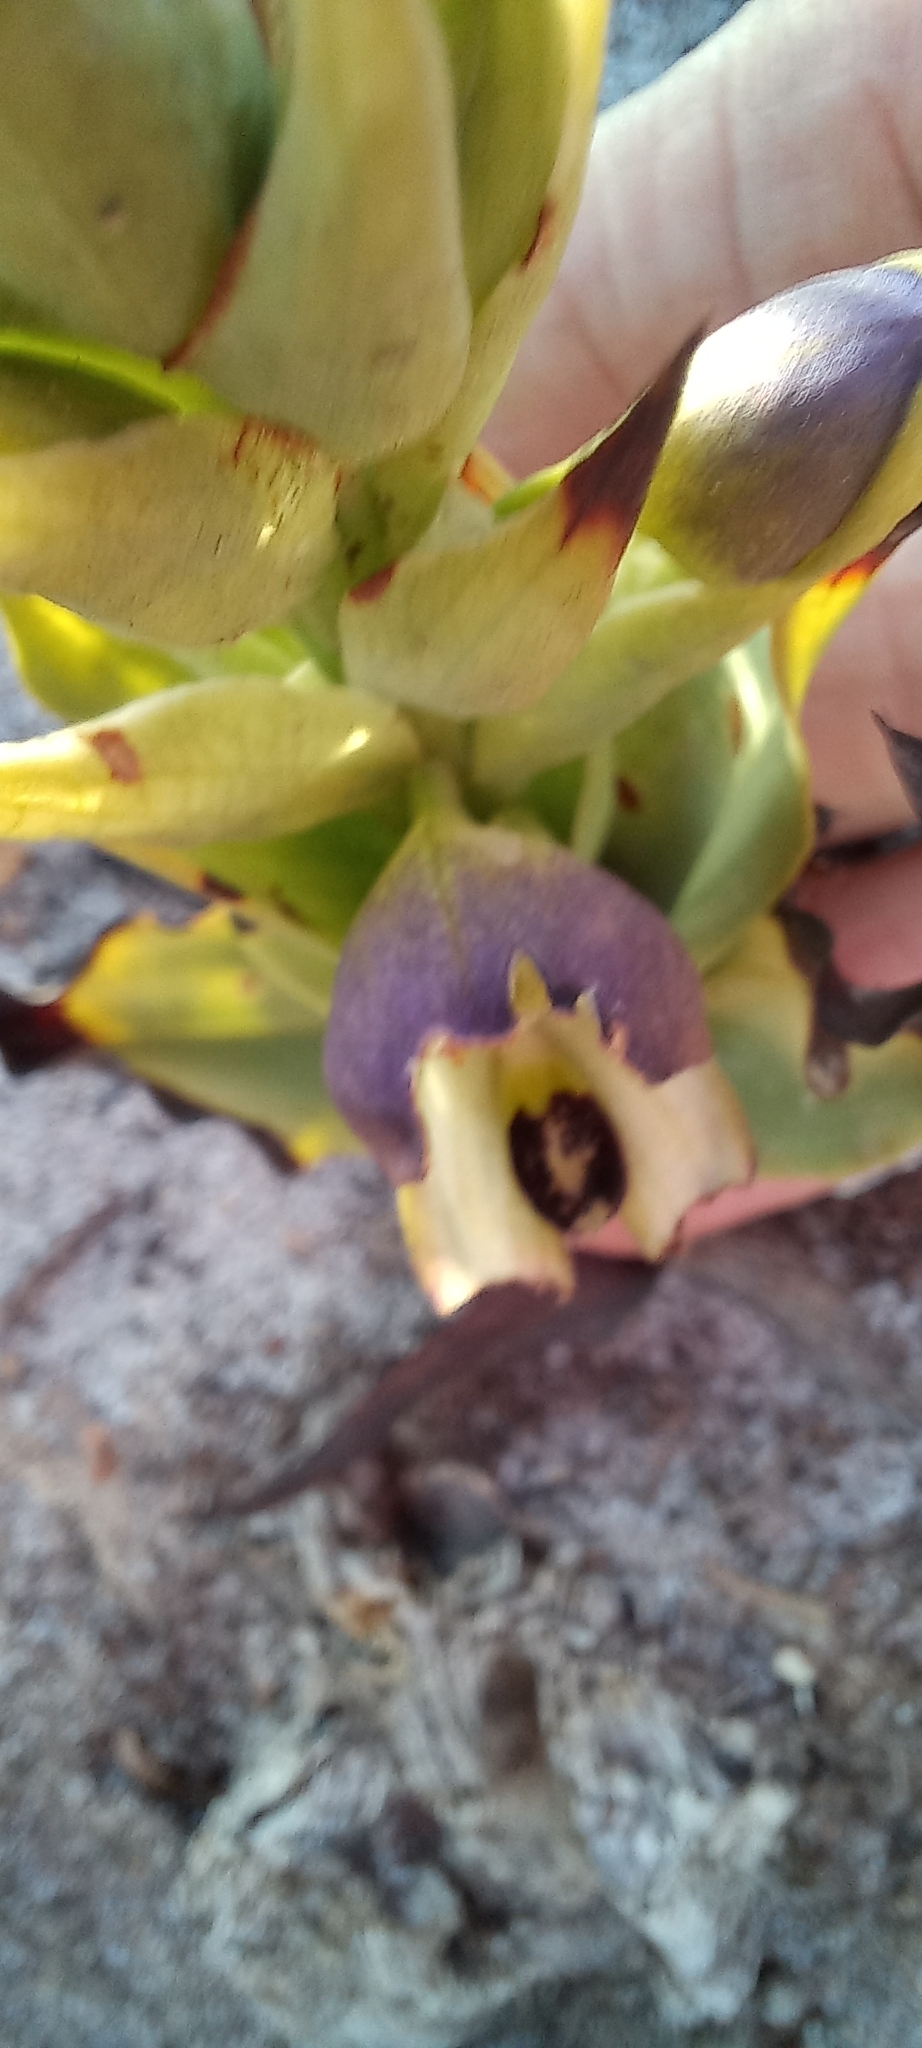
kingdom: Plantae
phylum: Tracheophyta
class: Liliopsida
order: Asparagales
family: Orchidaceae
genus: Disa
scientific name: Disa cornuta
